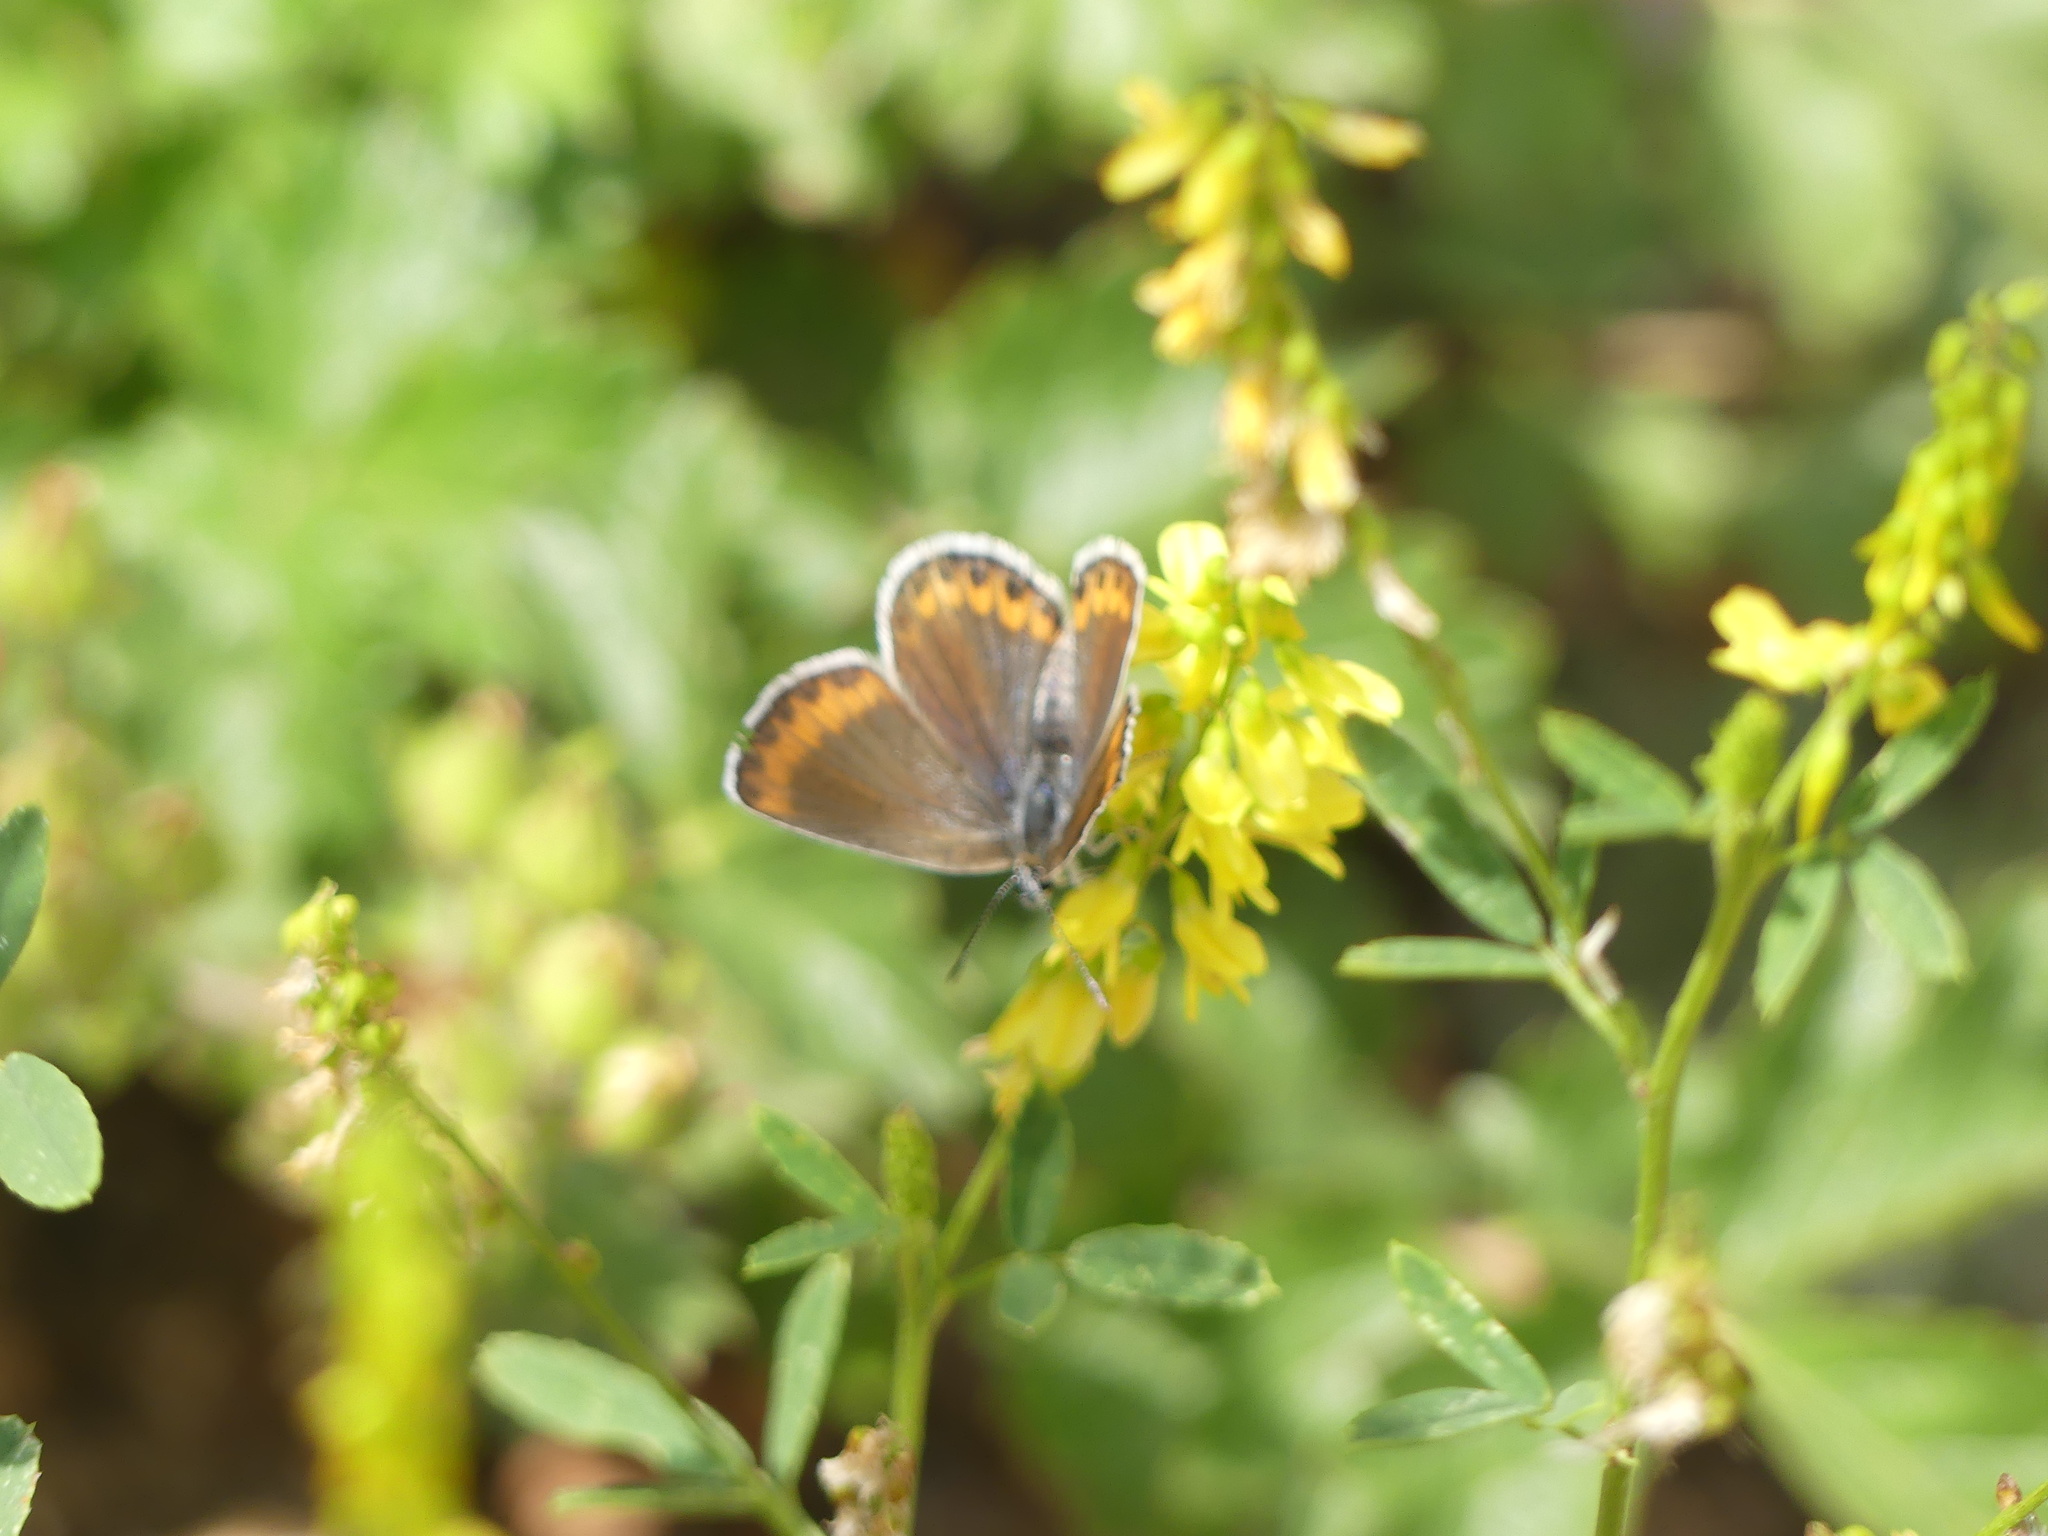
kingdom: Animalia
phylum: Arthropoda
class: Insecta
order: Lepidoptera
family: Lycaenidae
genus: Lycaeides
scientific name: Lycaeides melissa
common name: Melissa blue
